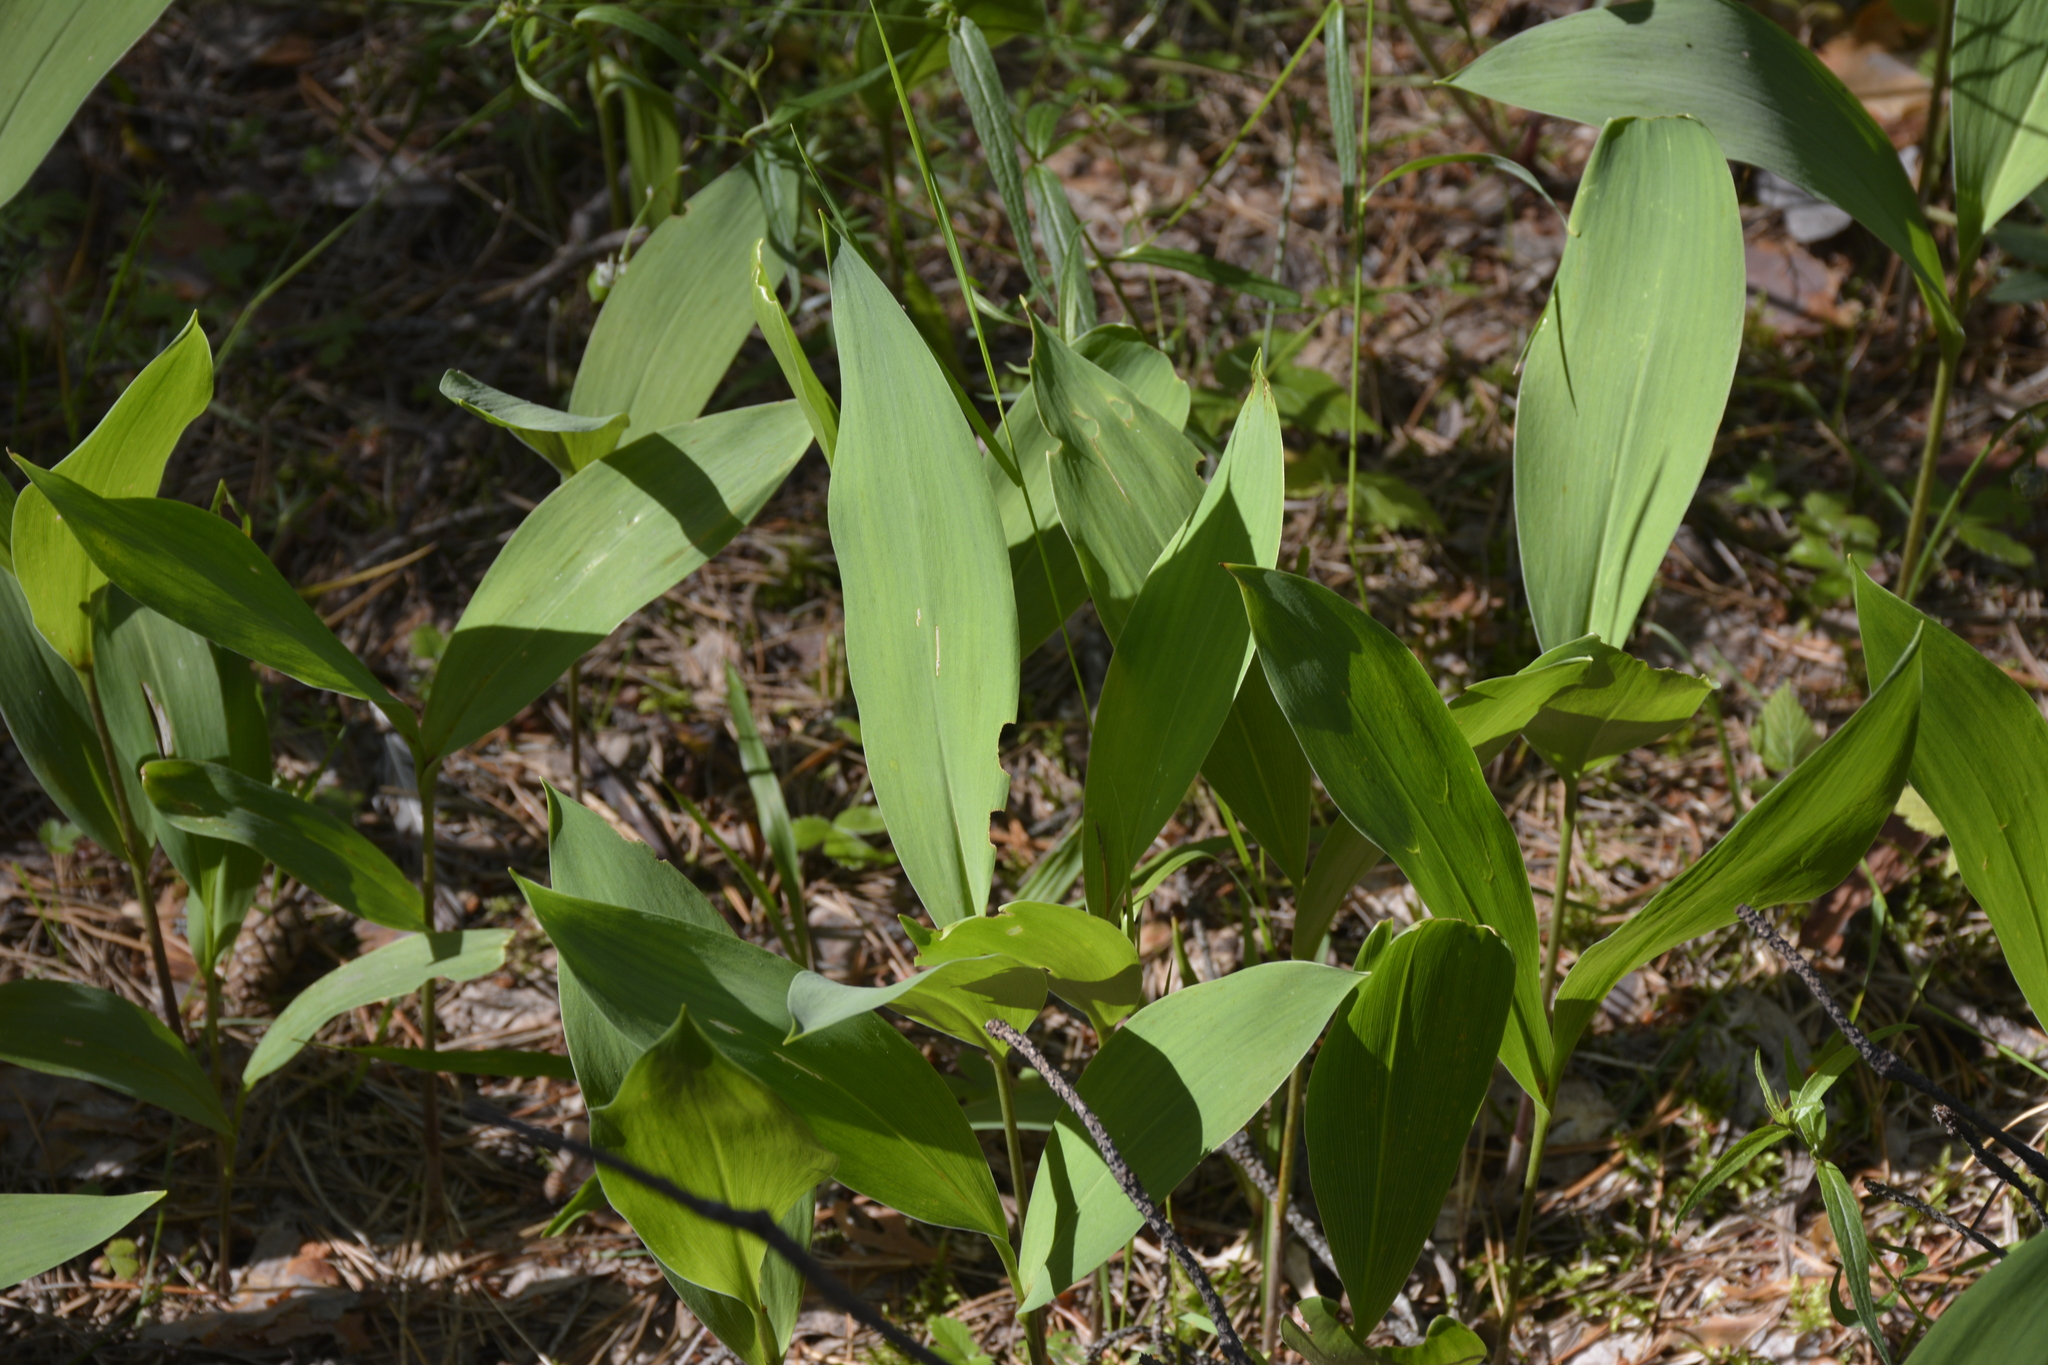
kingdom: Plantae
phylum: Tracheophyta
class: Liliopsida
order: Asparagales
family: Asparagaceae
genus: Convallaria
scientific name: Convallaria majalis
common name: Lily-of-the-valley
